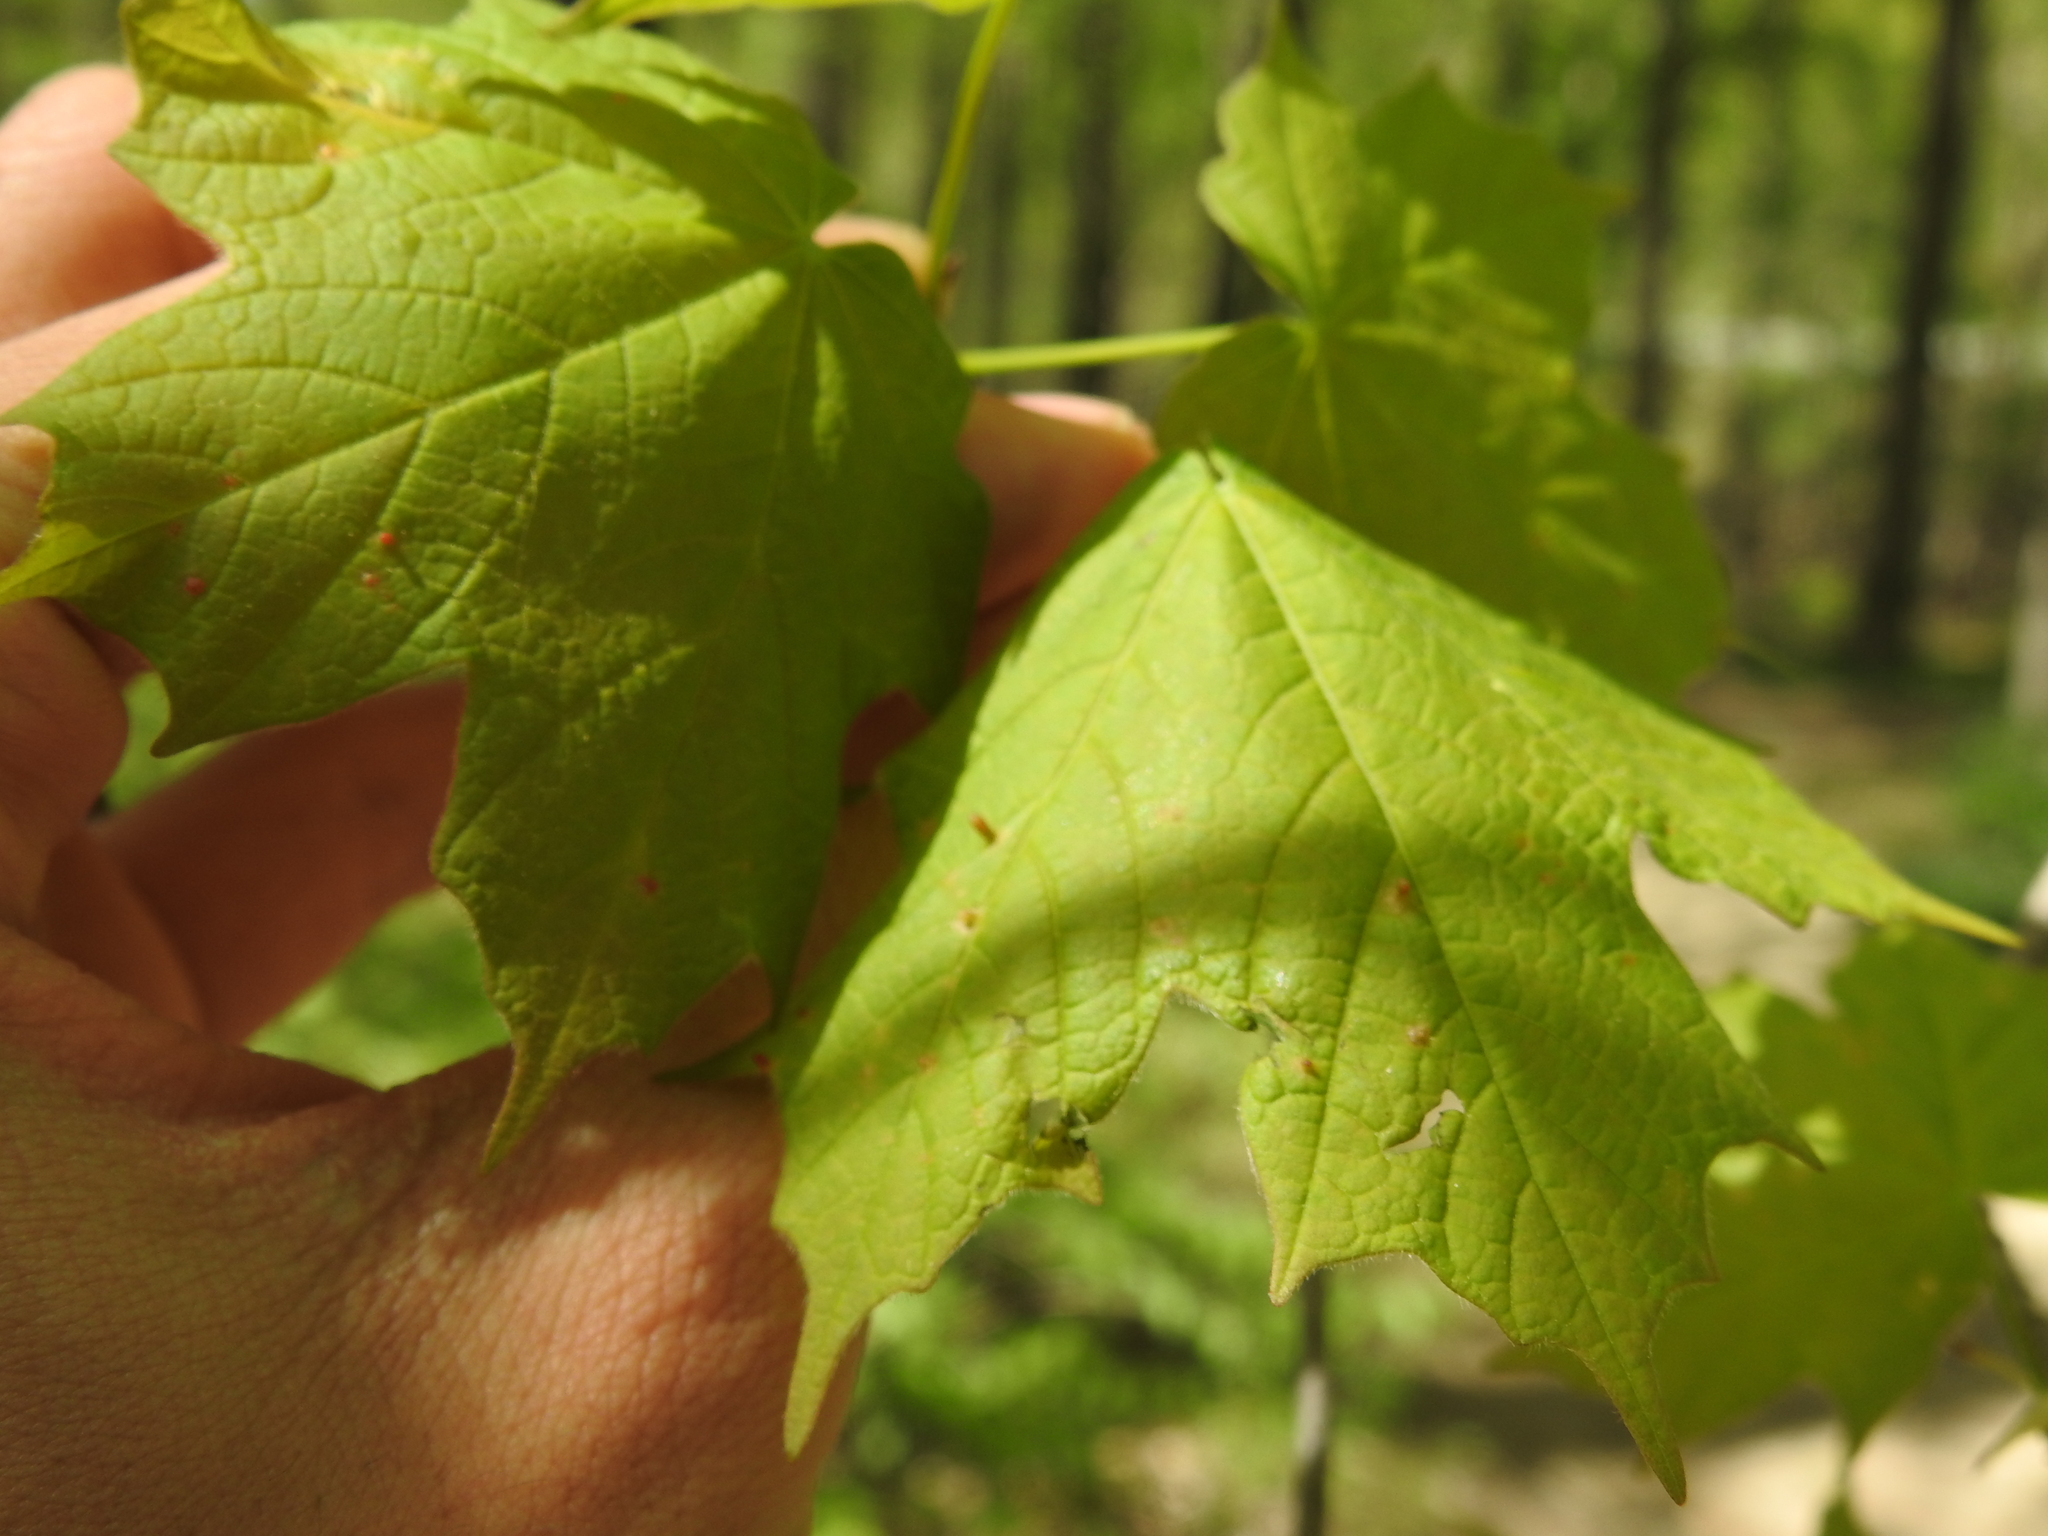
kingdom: Animalia
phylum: Arthropoda
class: Arachnida
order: Trombidiformes
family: Eriophyidae
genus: Vasates
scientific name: Vasates aceriscrumena
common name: Maple spindle gall mite
